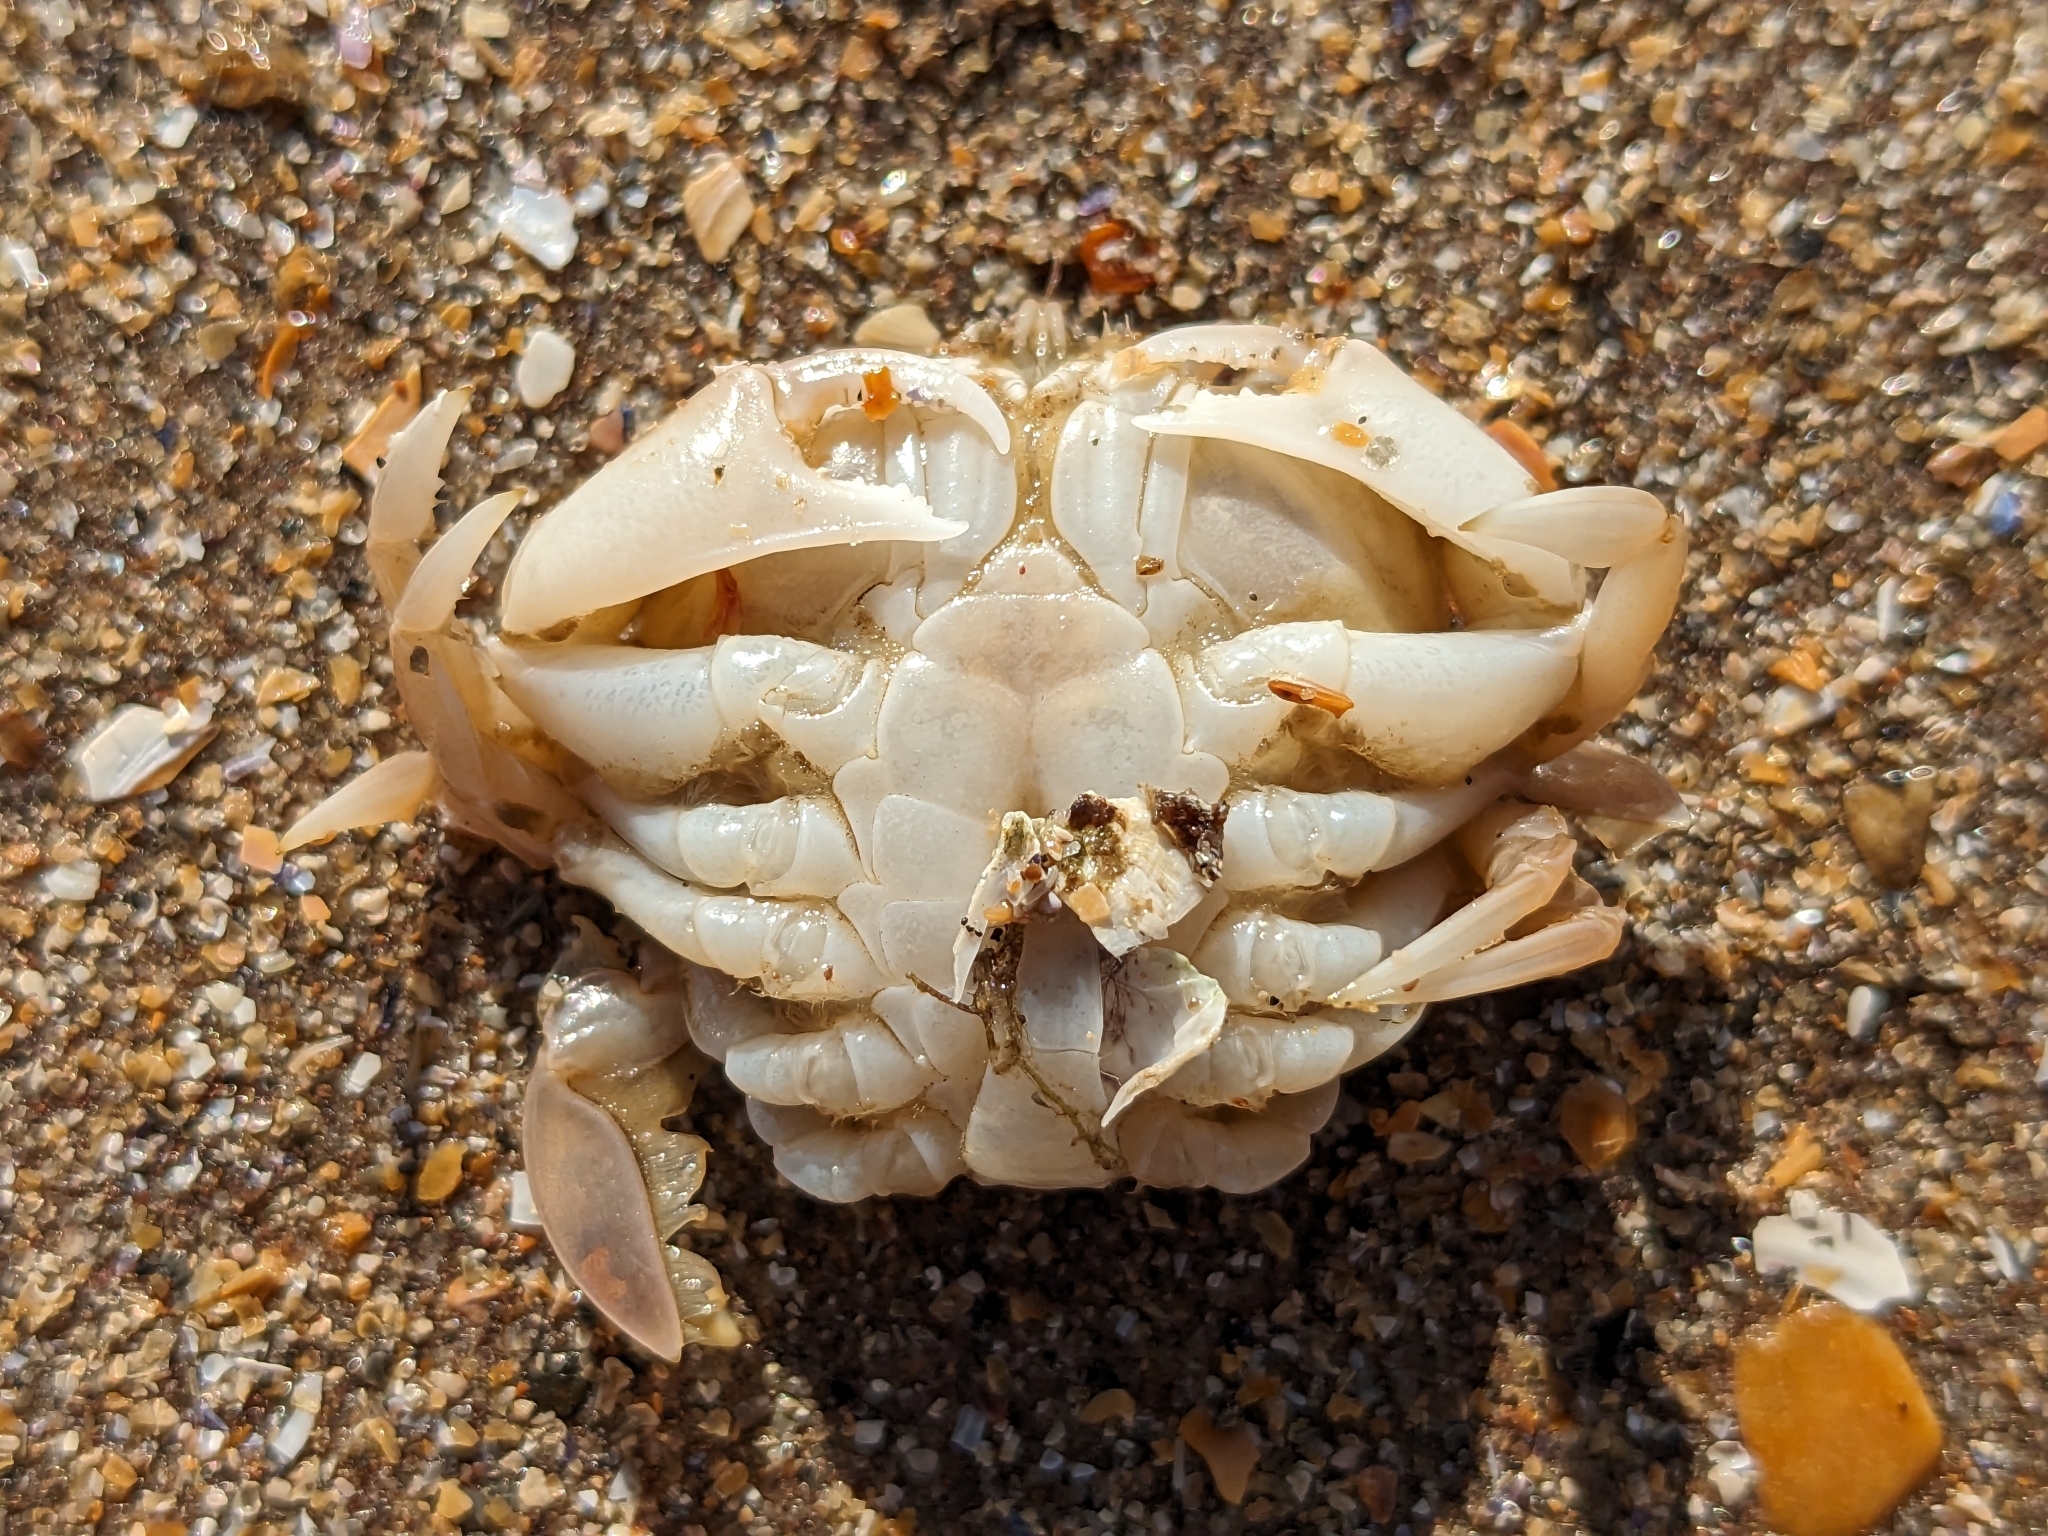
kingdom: Animalia
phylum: Arthropoda
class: Malacostraca
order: Decapoda
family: Carcinidae
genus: Portumnus
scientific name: Portumnus latipes
